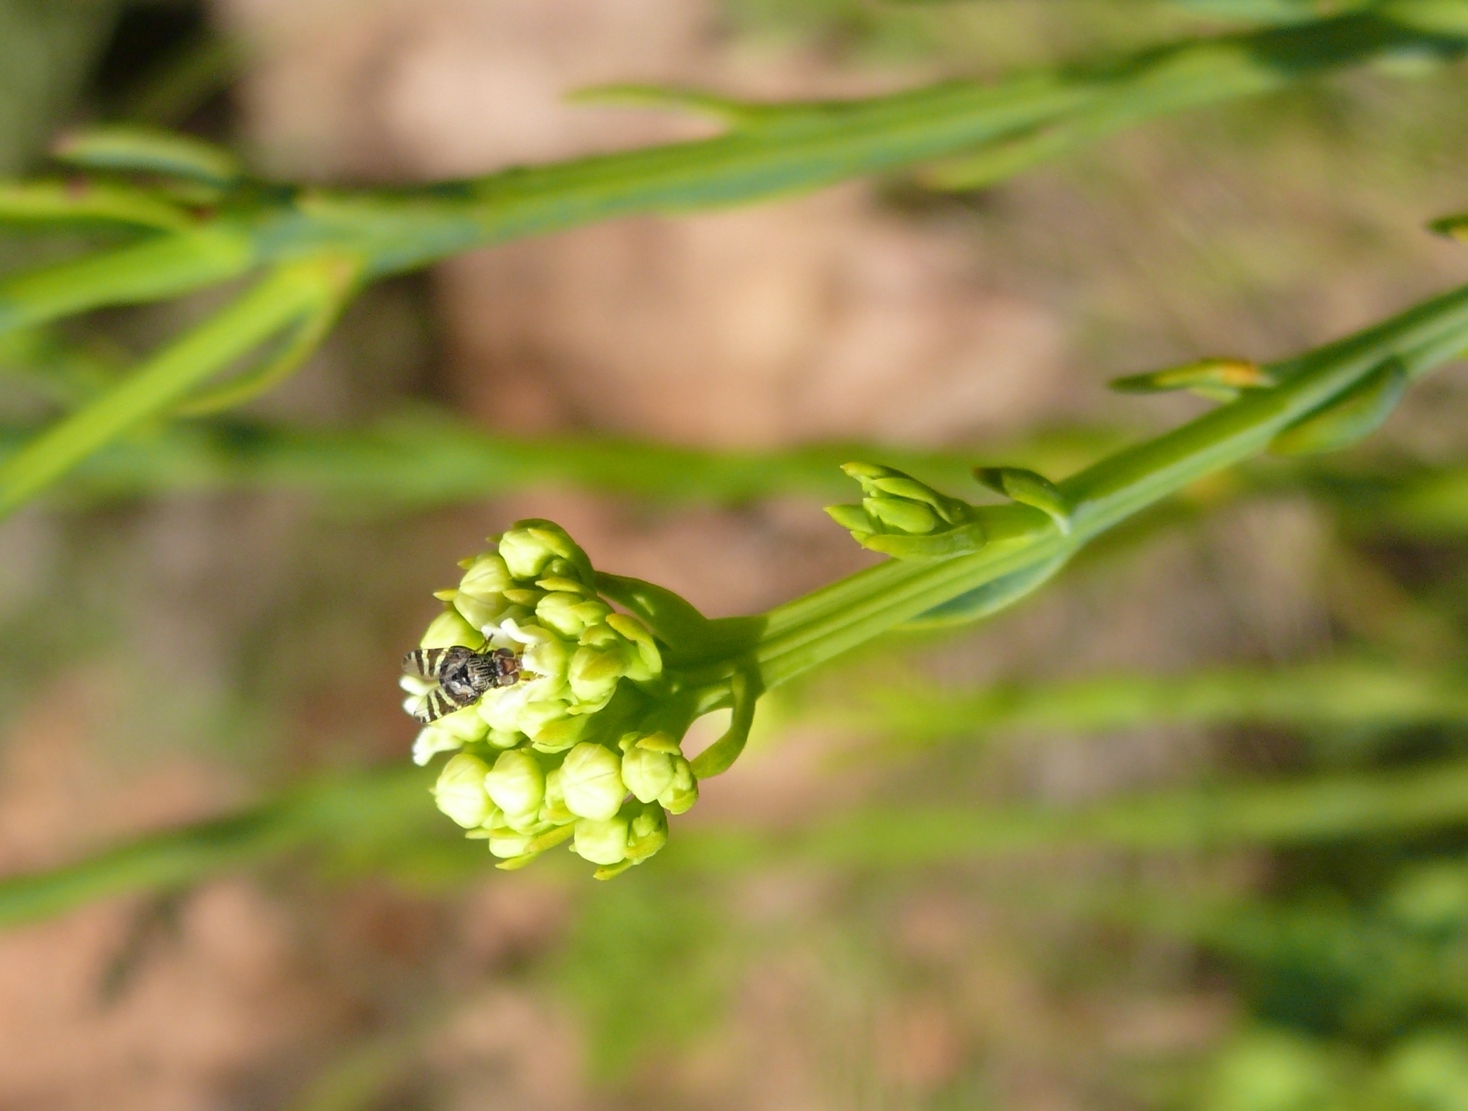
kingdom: Plantae
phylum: Tracheophyta
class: Magnoliopsida
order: Santalales
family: Thesiaceae
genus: Thesium
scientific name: Thesium strictum
